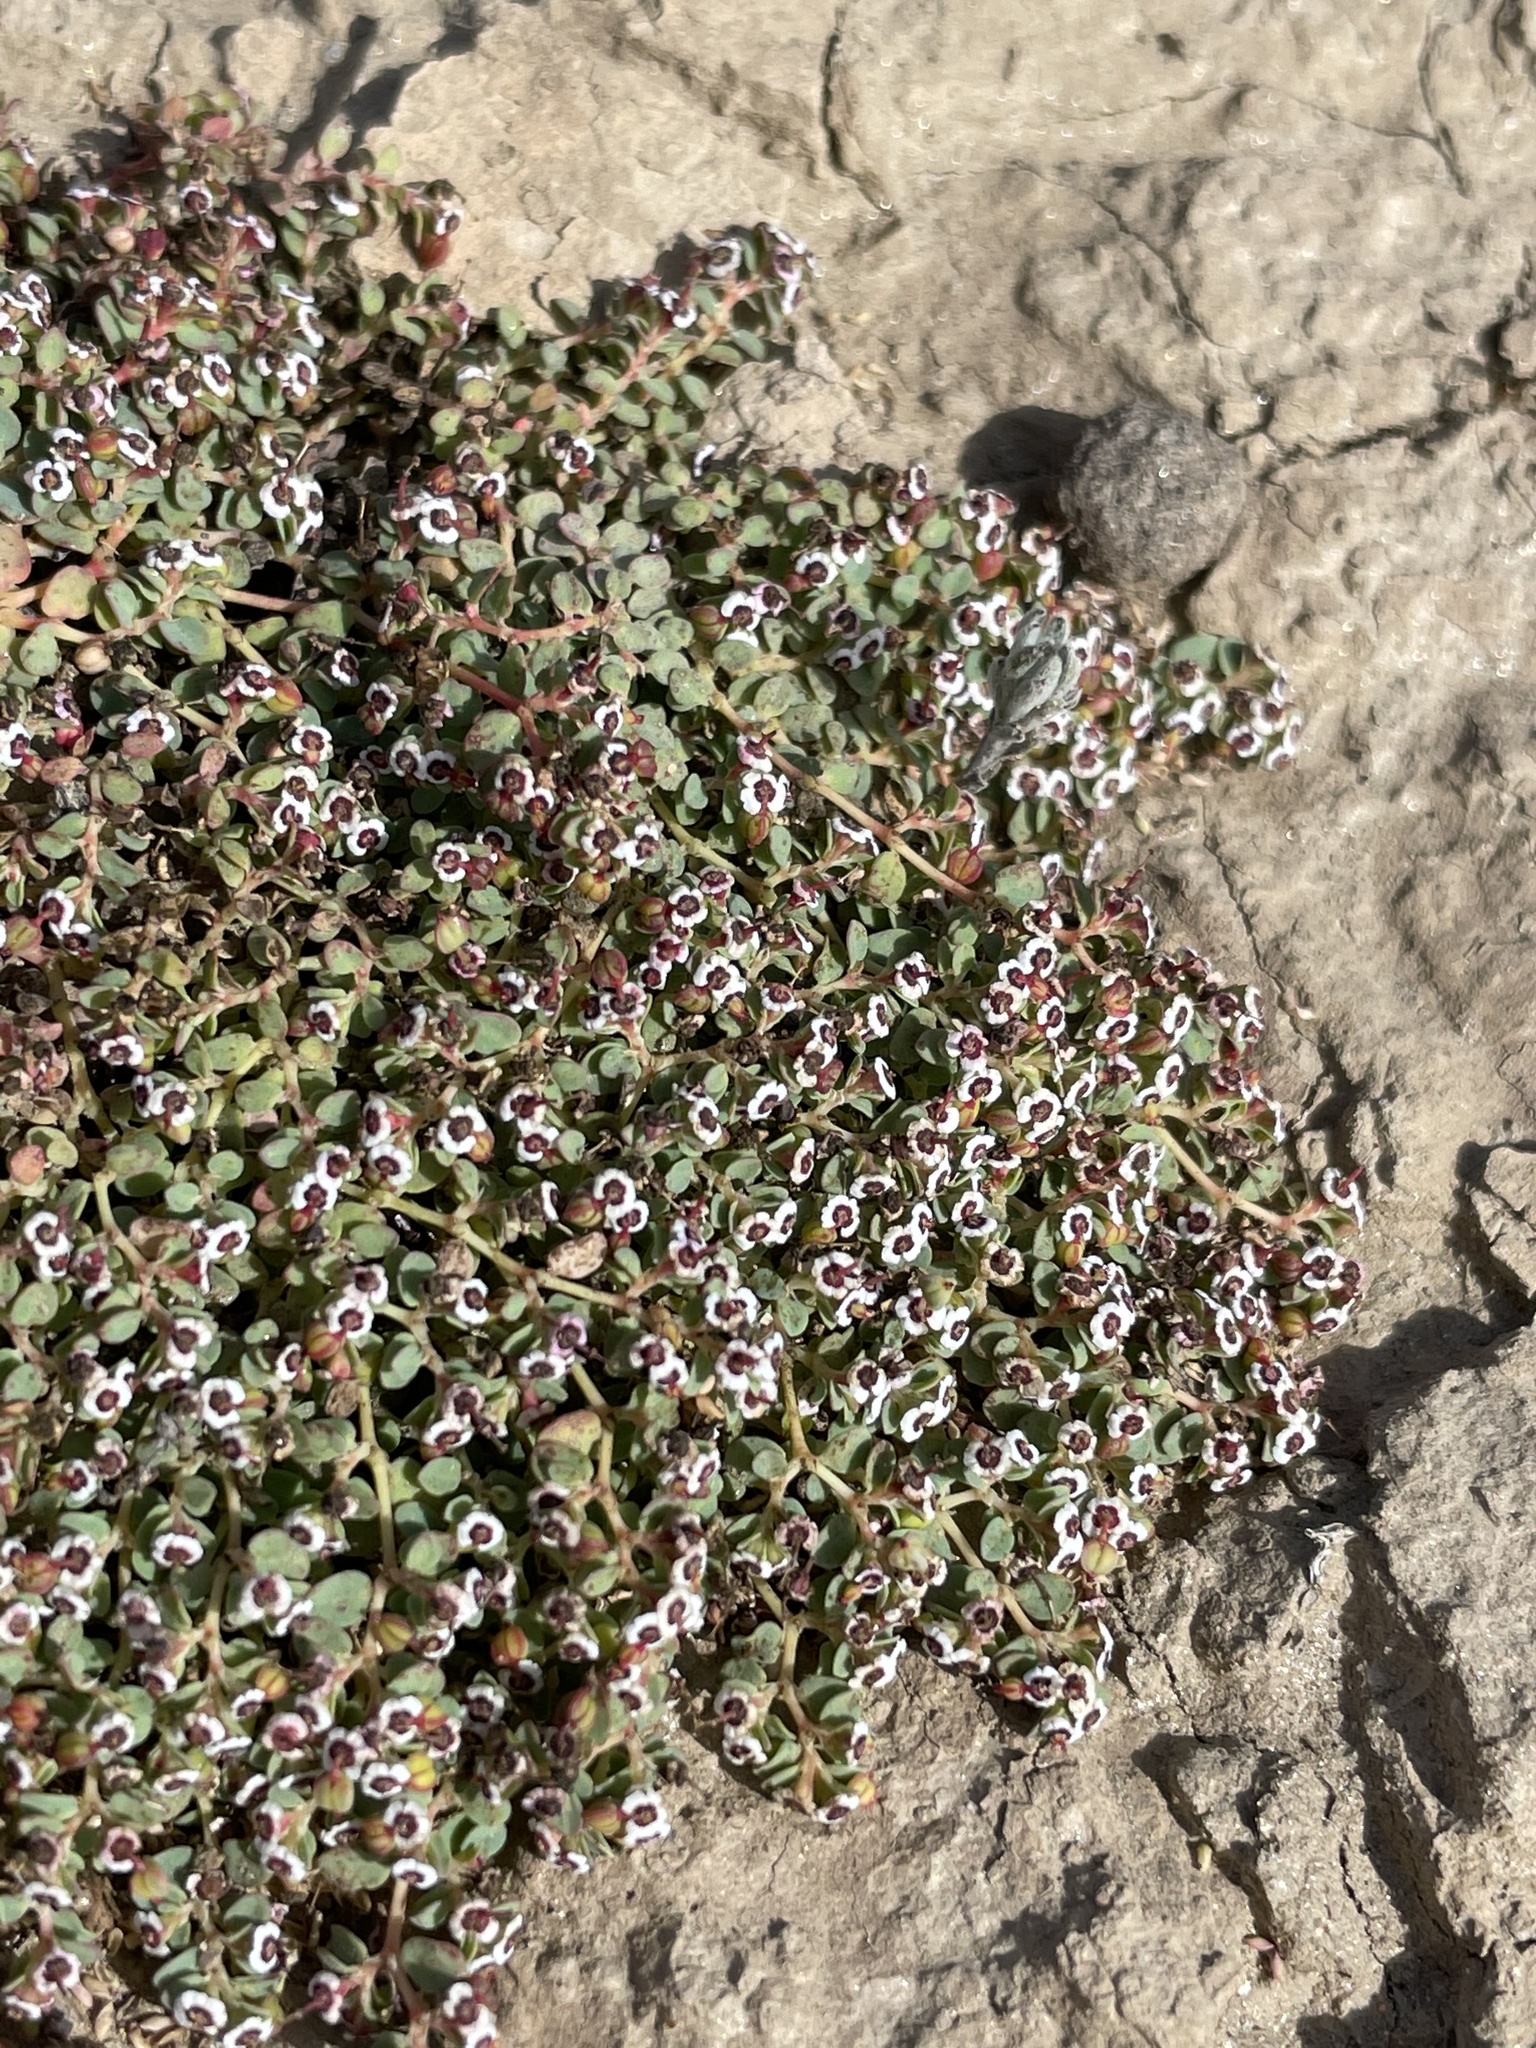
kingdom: Plantae
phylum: Tracheophyta
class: Magnoliopsida
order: Malpighiales
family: Euphorbiaceae
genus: Euphorbia
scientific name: Euphorbia polycarpa
